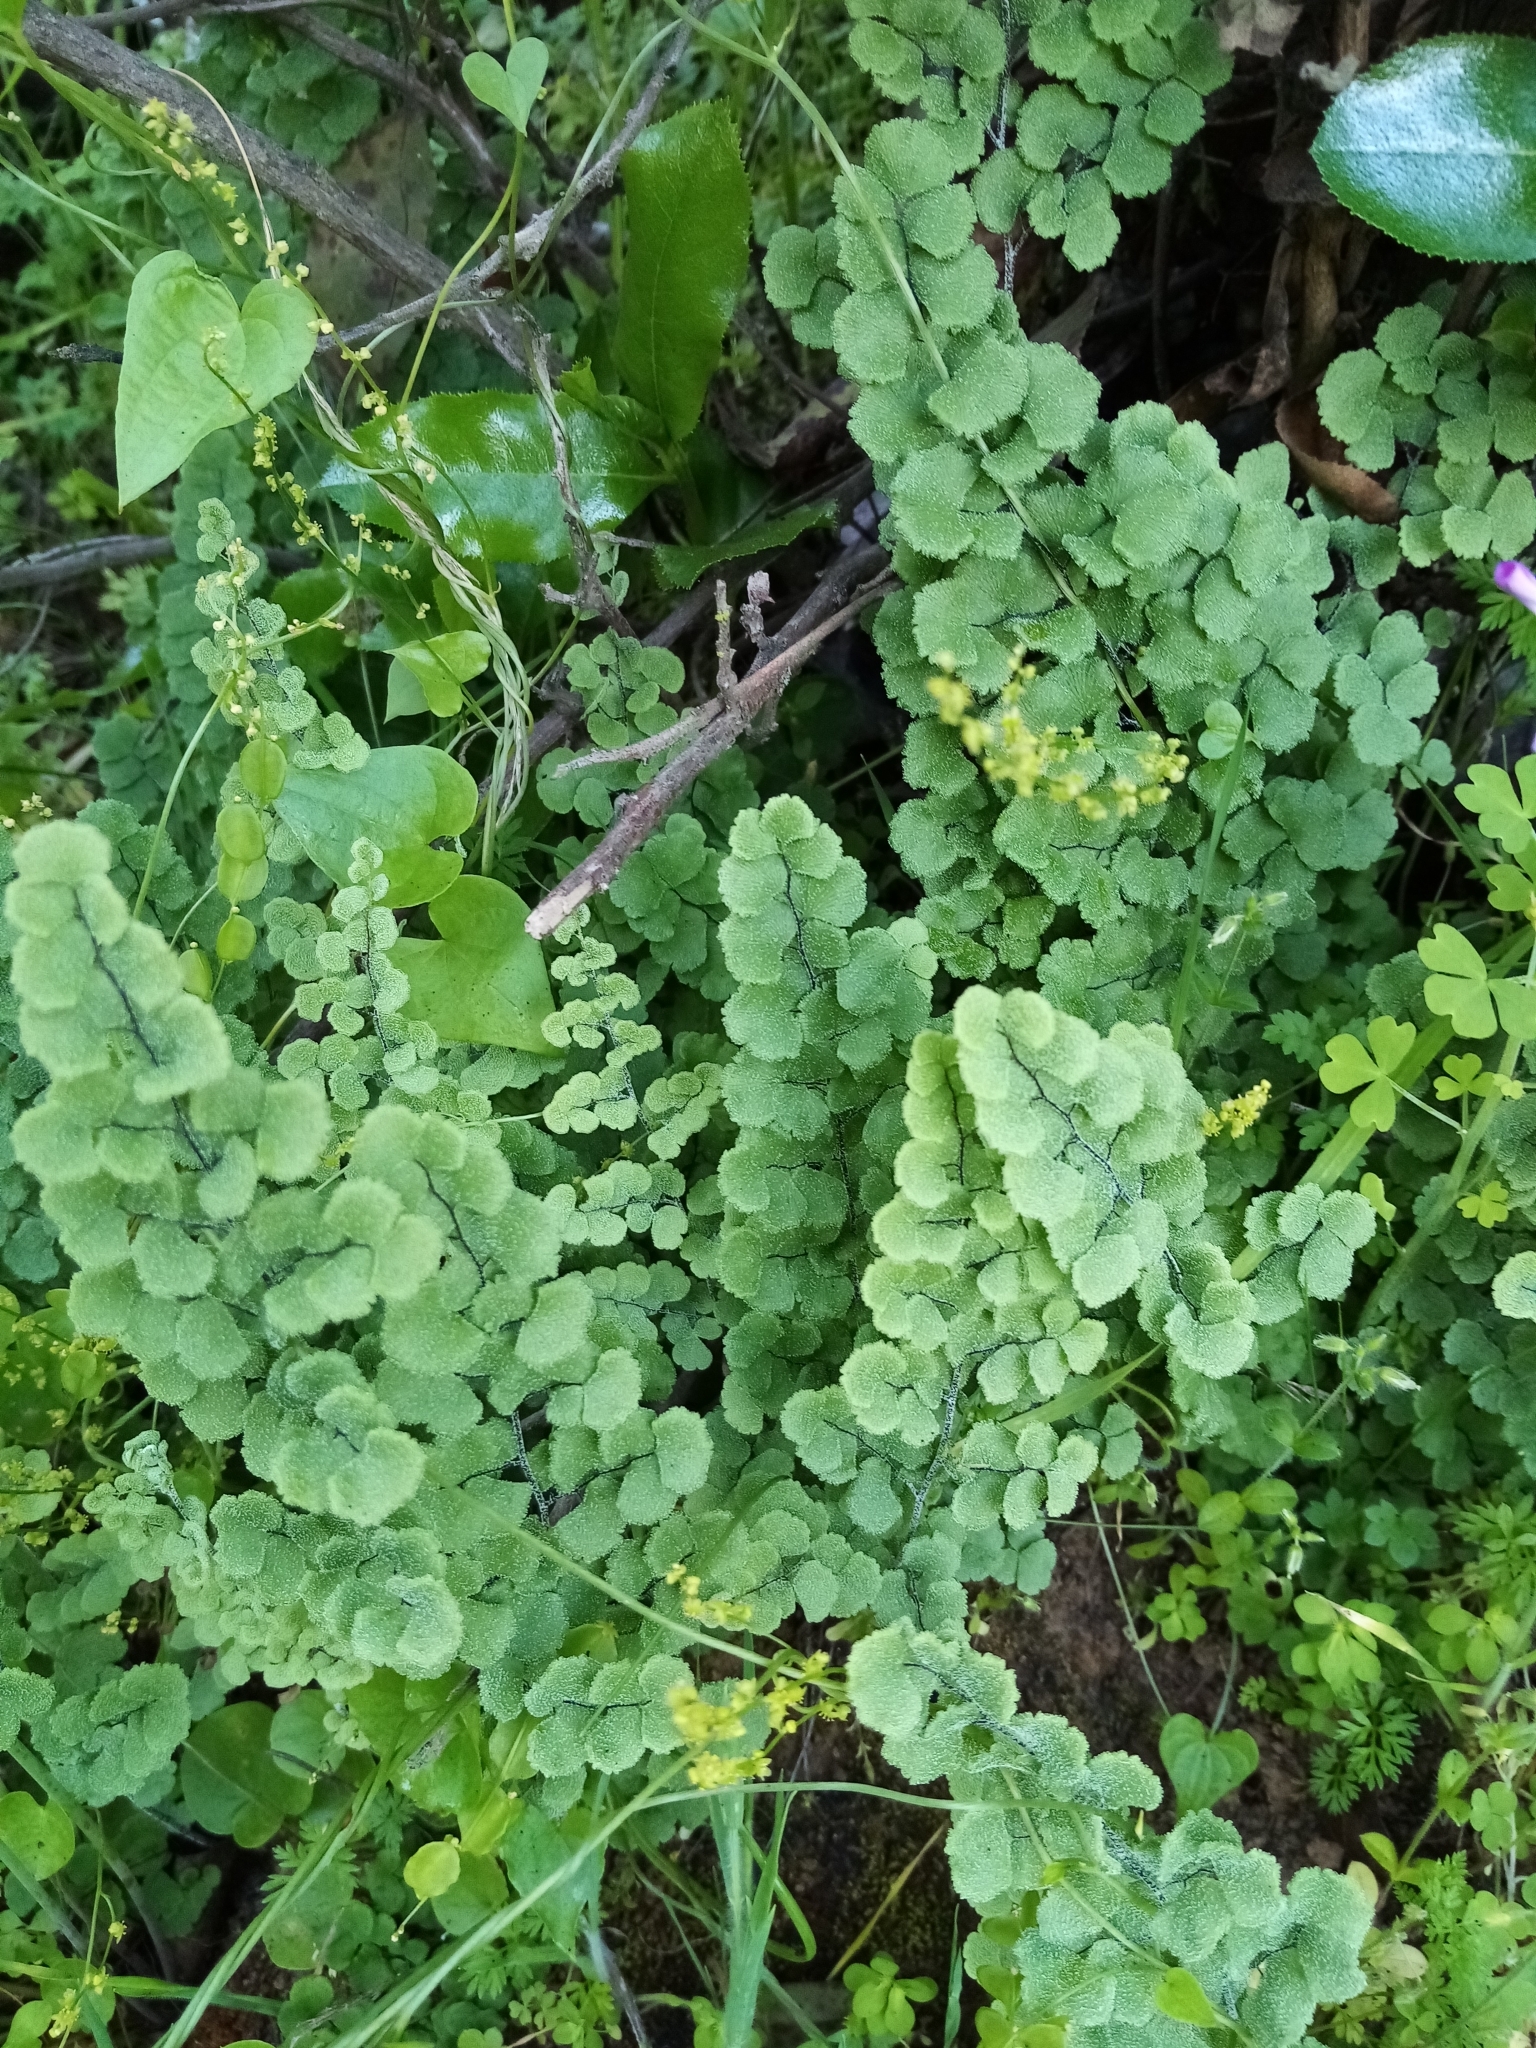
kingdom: Plantae
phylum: Tracheophyta
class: Polypodiopsida
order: Polypodiales
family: Pteridaceae
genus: Adiantum
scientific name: Adiantum chilense
